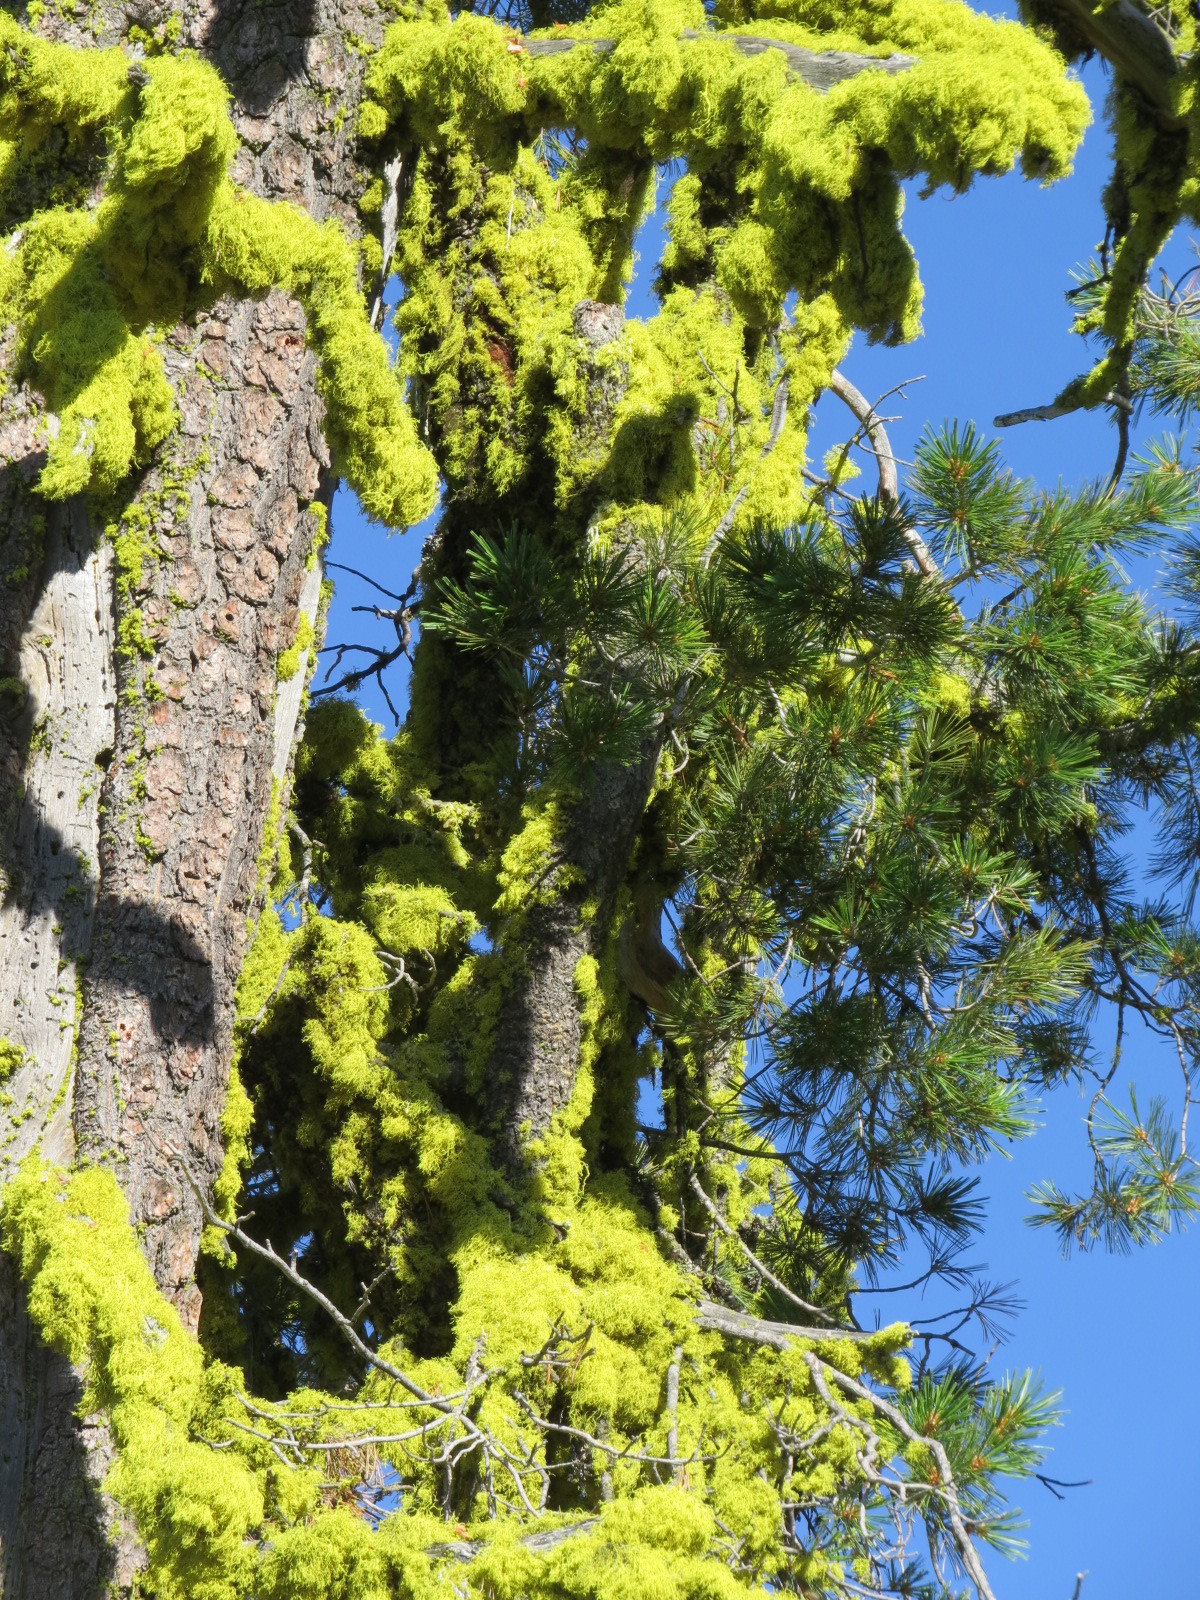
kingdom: Plantae
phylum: Tracheophyta
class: Pinopsida
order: Pinales
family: Pinaceae
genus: Pinus
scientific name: Pinus monticola
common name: Western white pine
